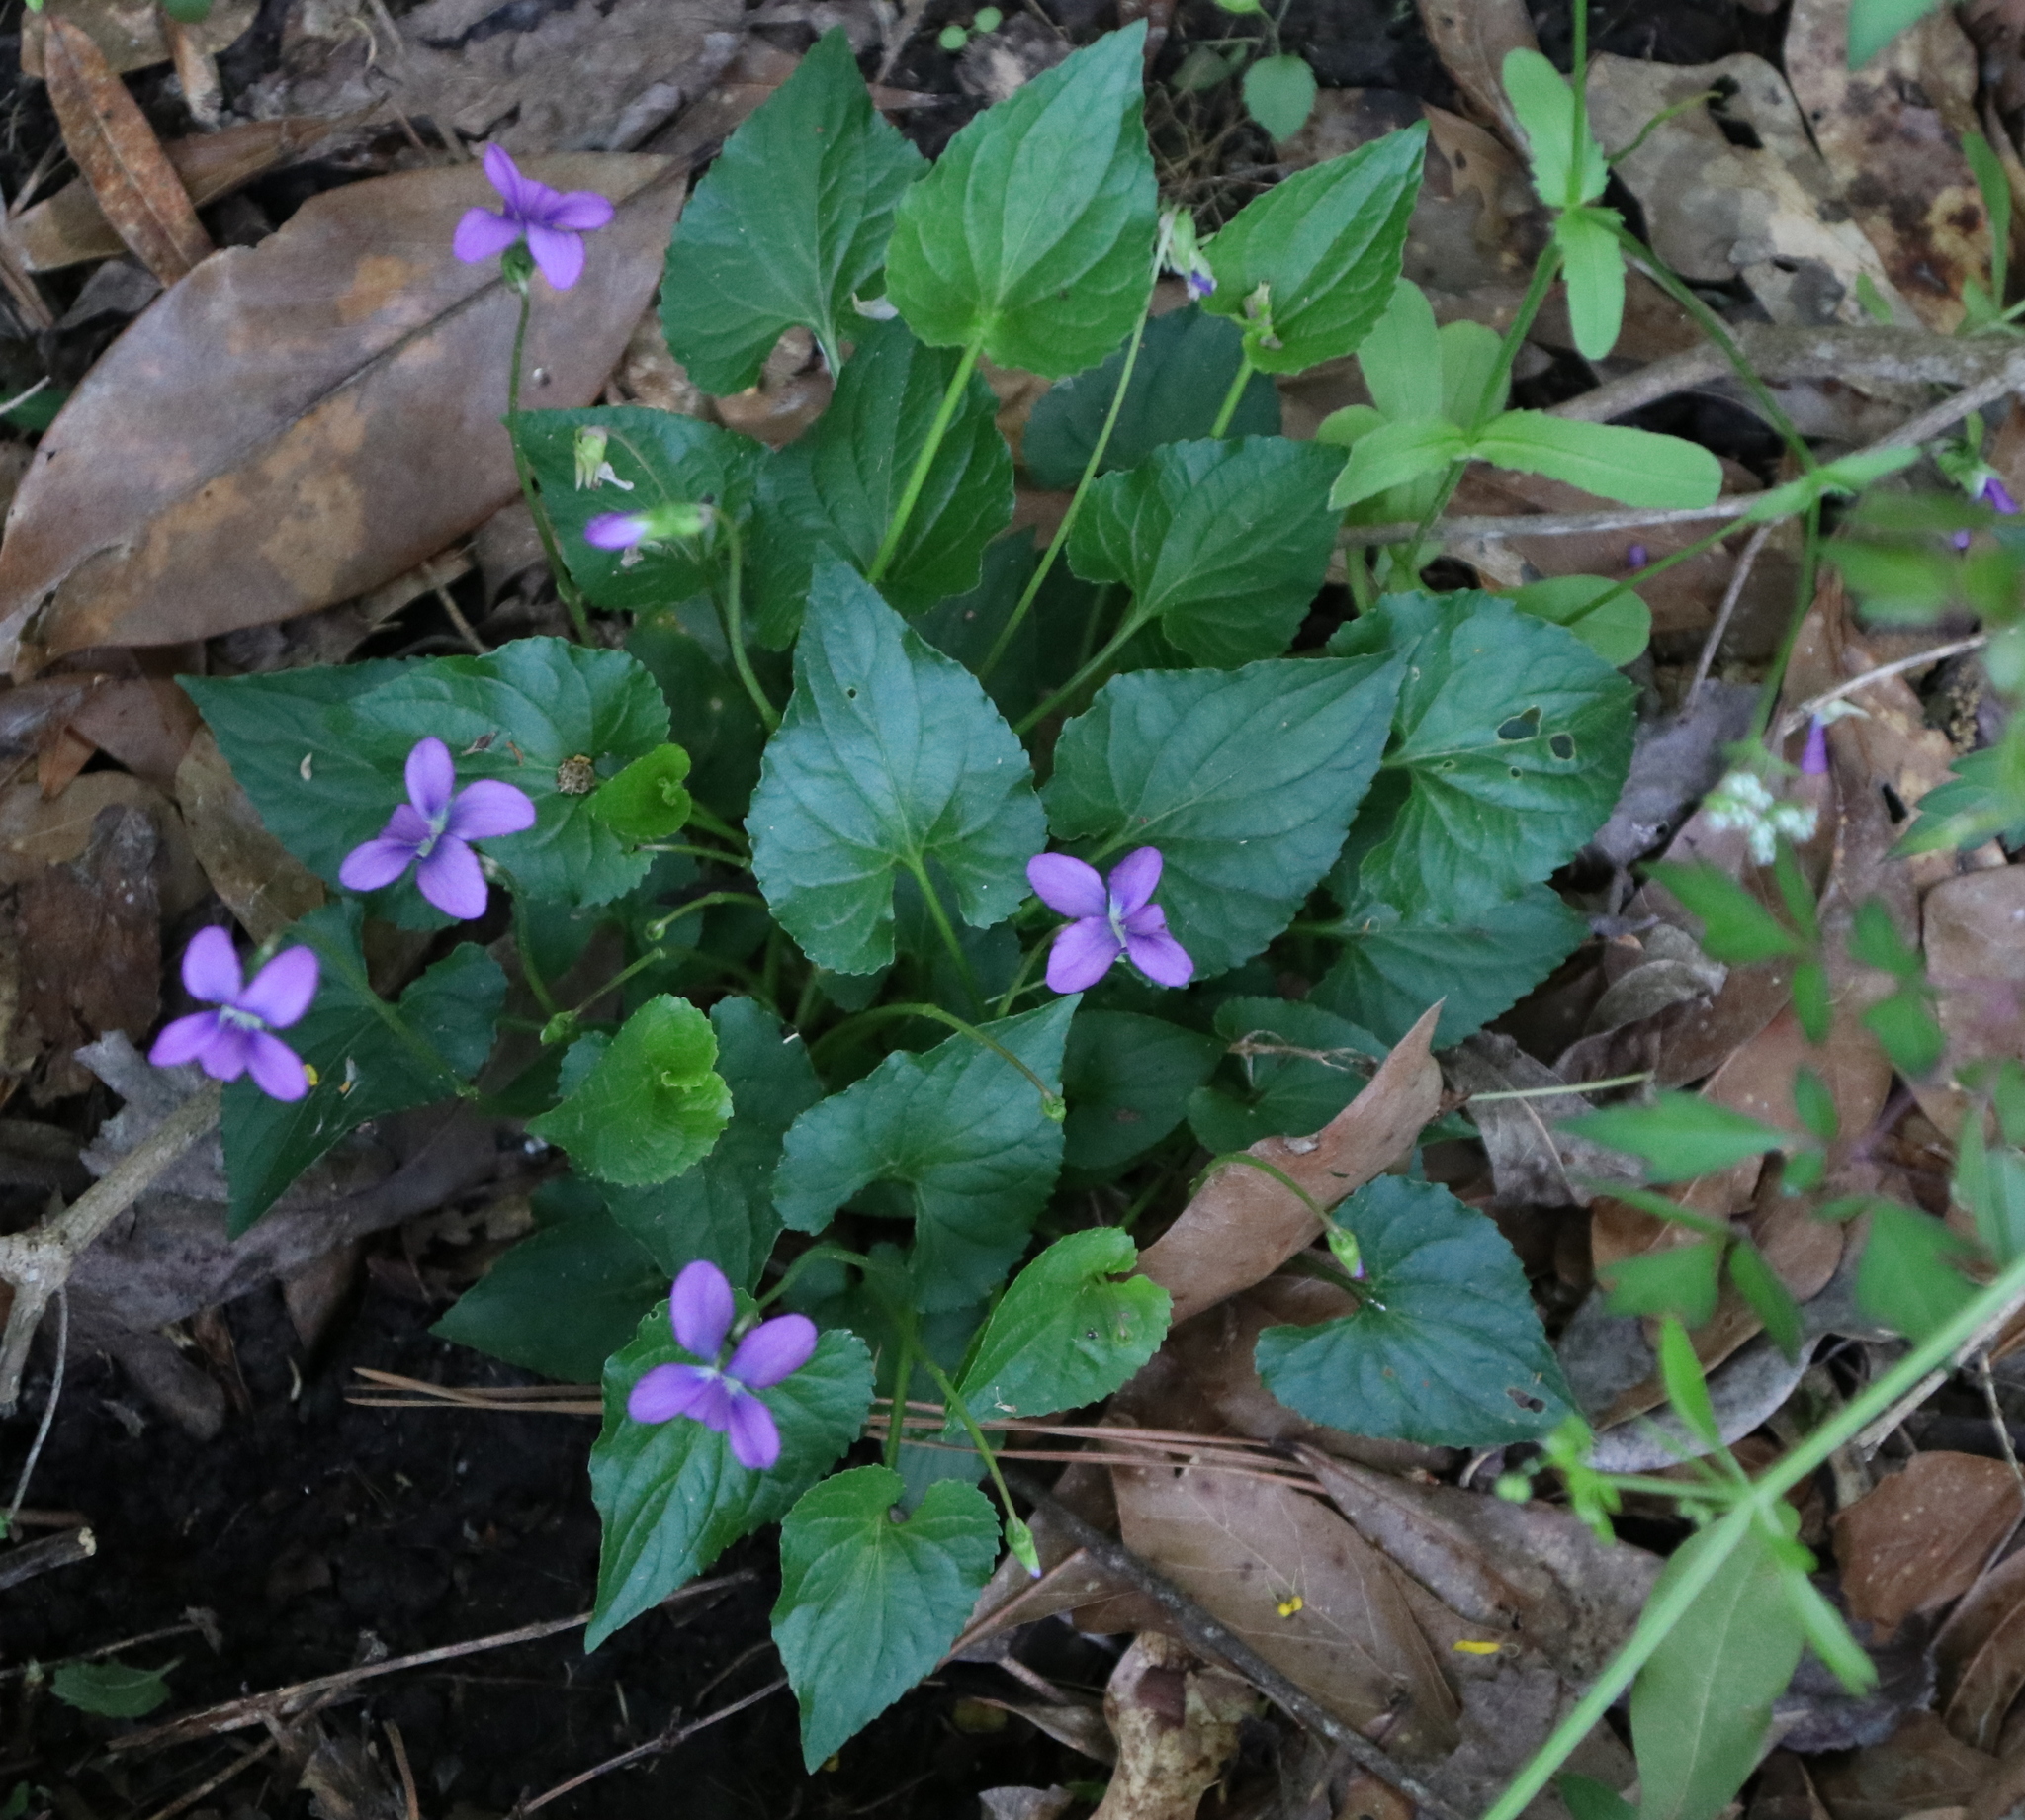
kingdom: Plantae
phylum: Tracheophyta
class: Magnoliopsida
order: Malpighiales
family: Violaceae
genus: Viola
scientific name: Viola sororia
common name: Dooryard violet
